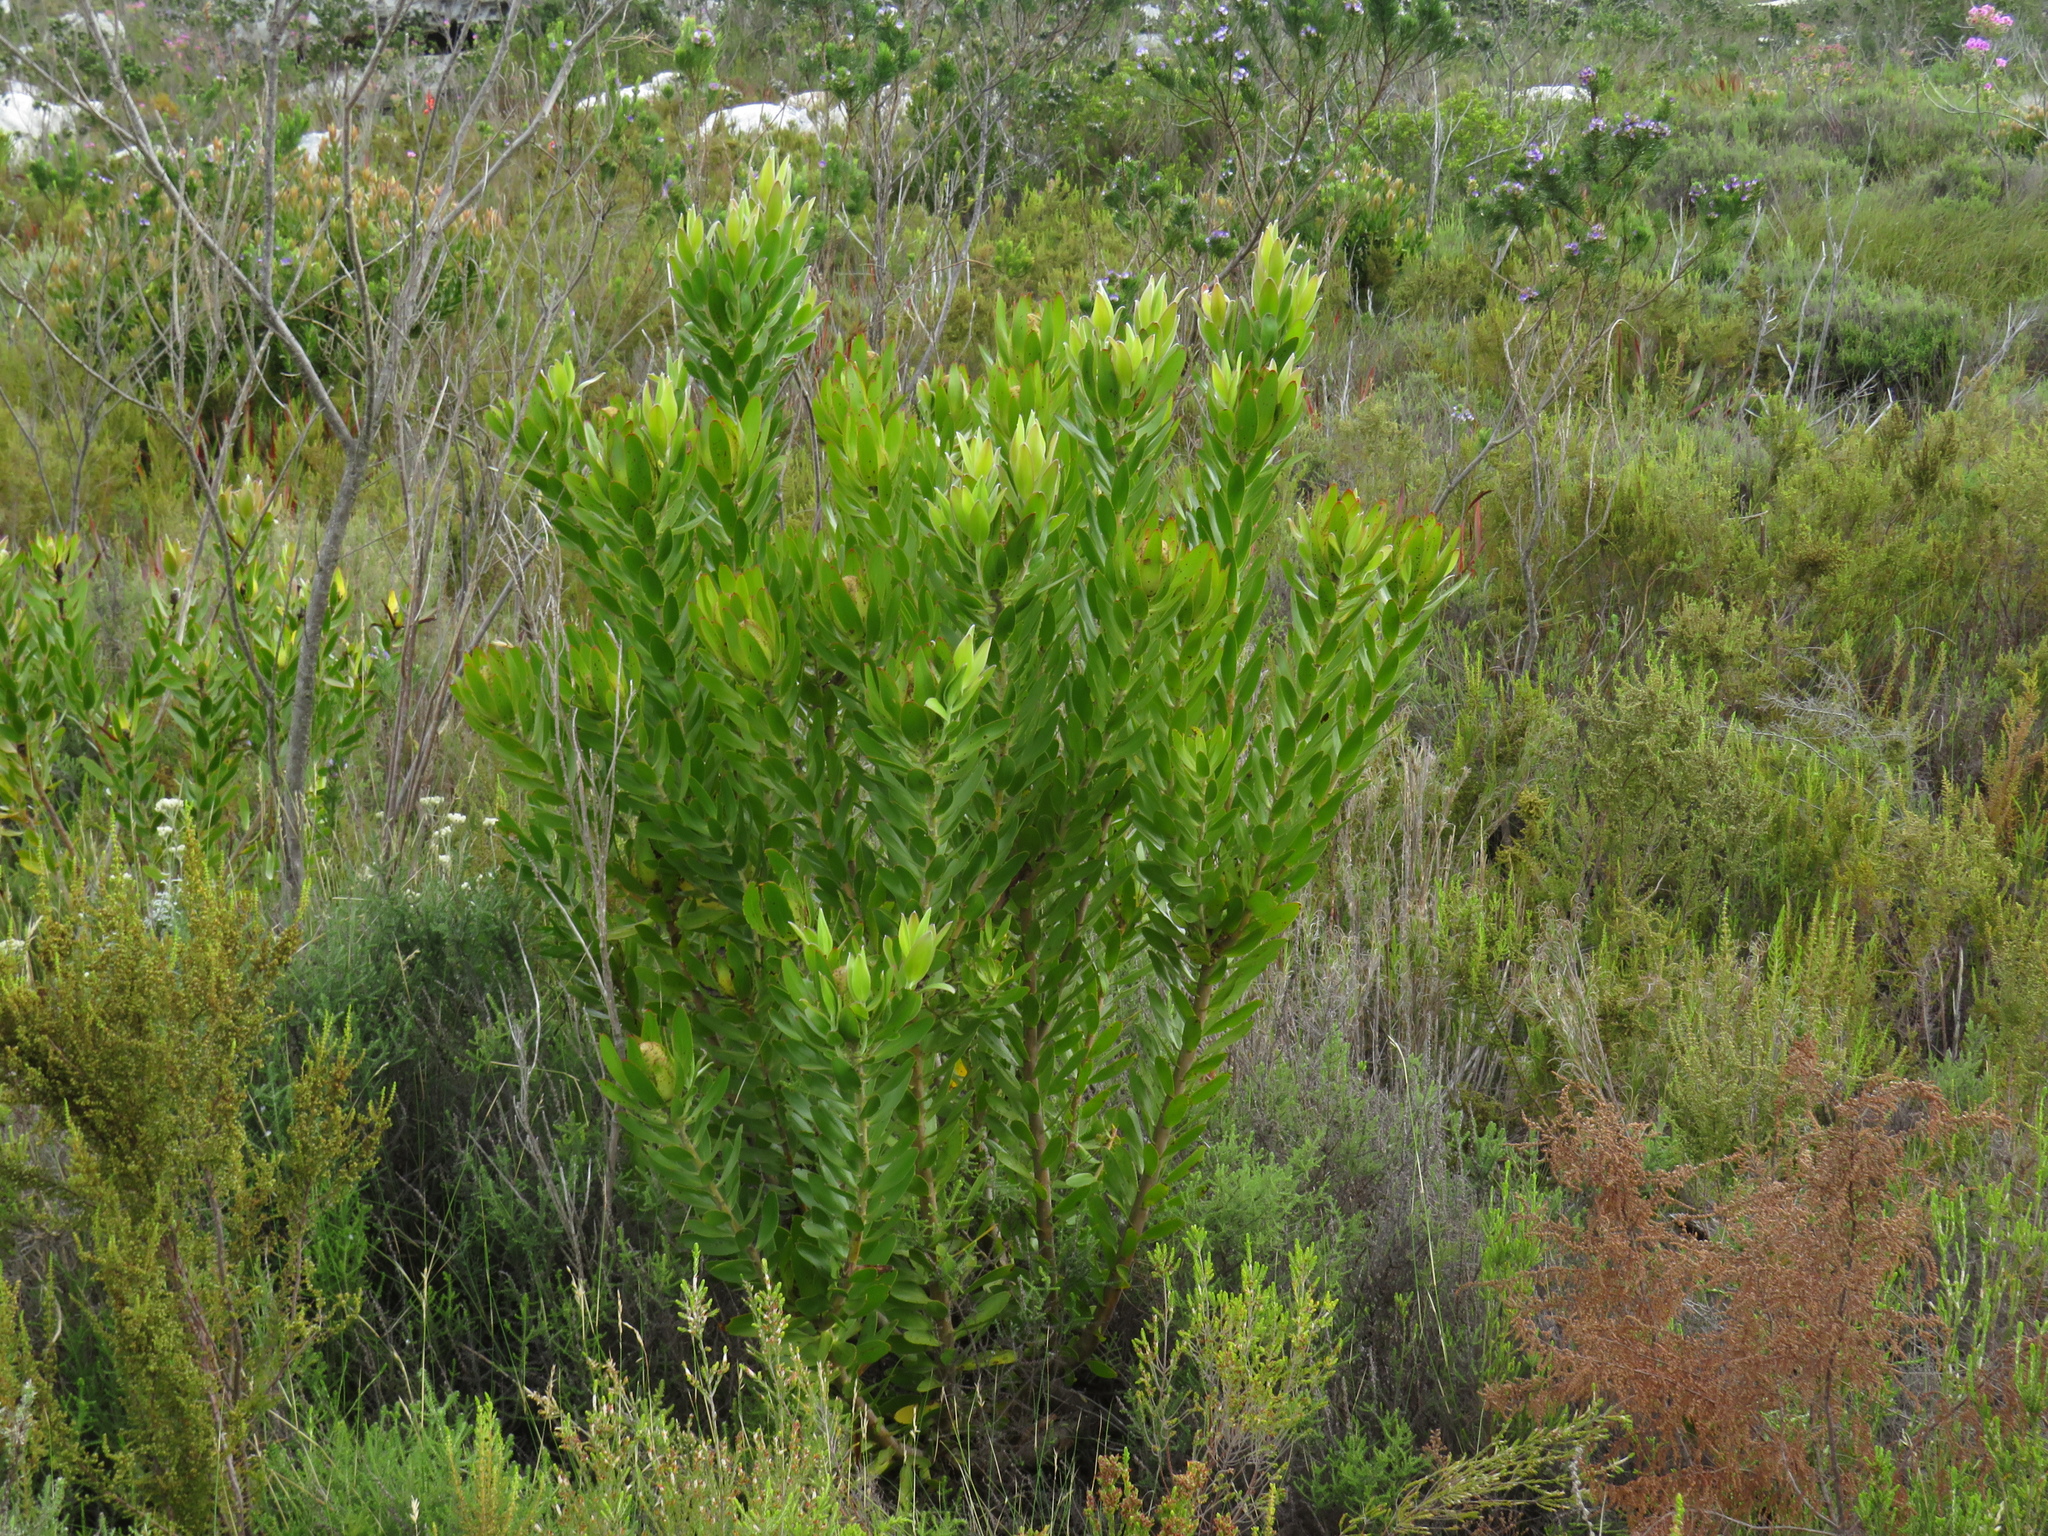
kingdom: Plantae
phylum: Tracheophyta
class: Magnoliopsida
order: Proteales
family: Proteaceae
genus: Leucadendron
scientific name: Leucadendron laureolum
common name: Golden sunshinebush
